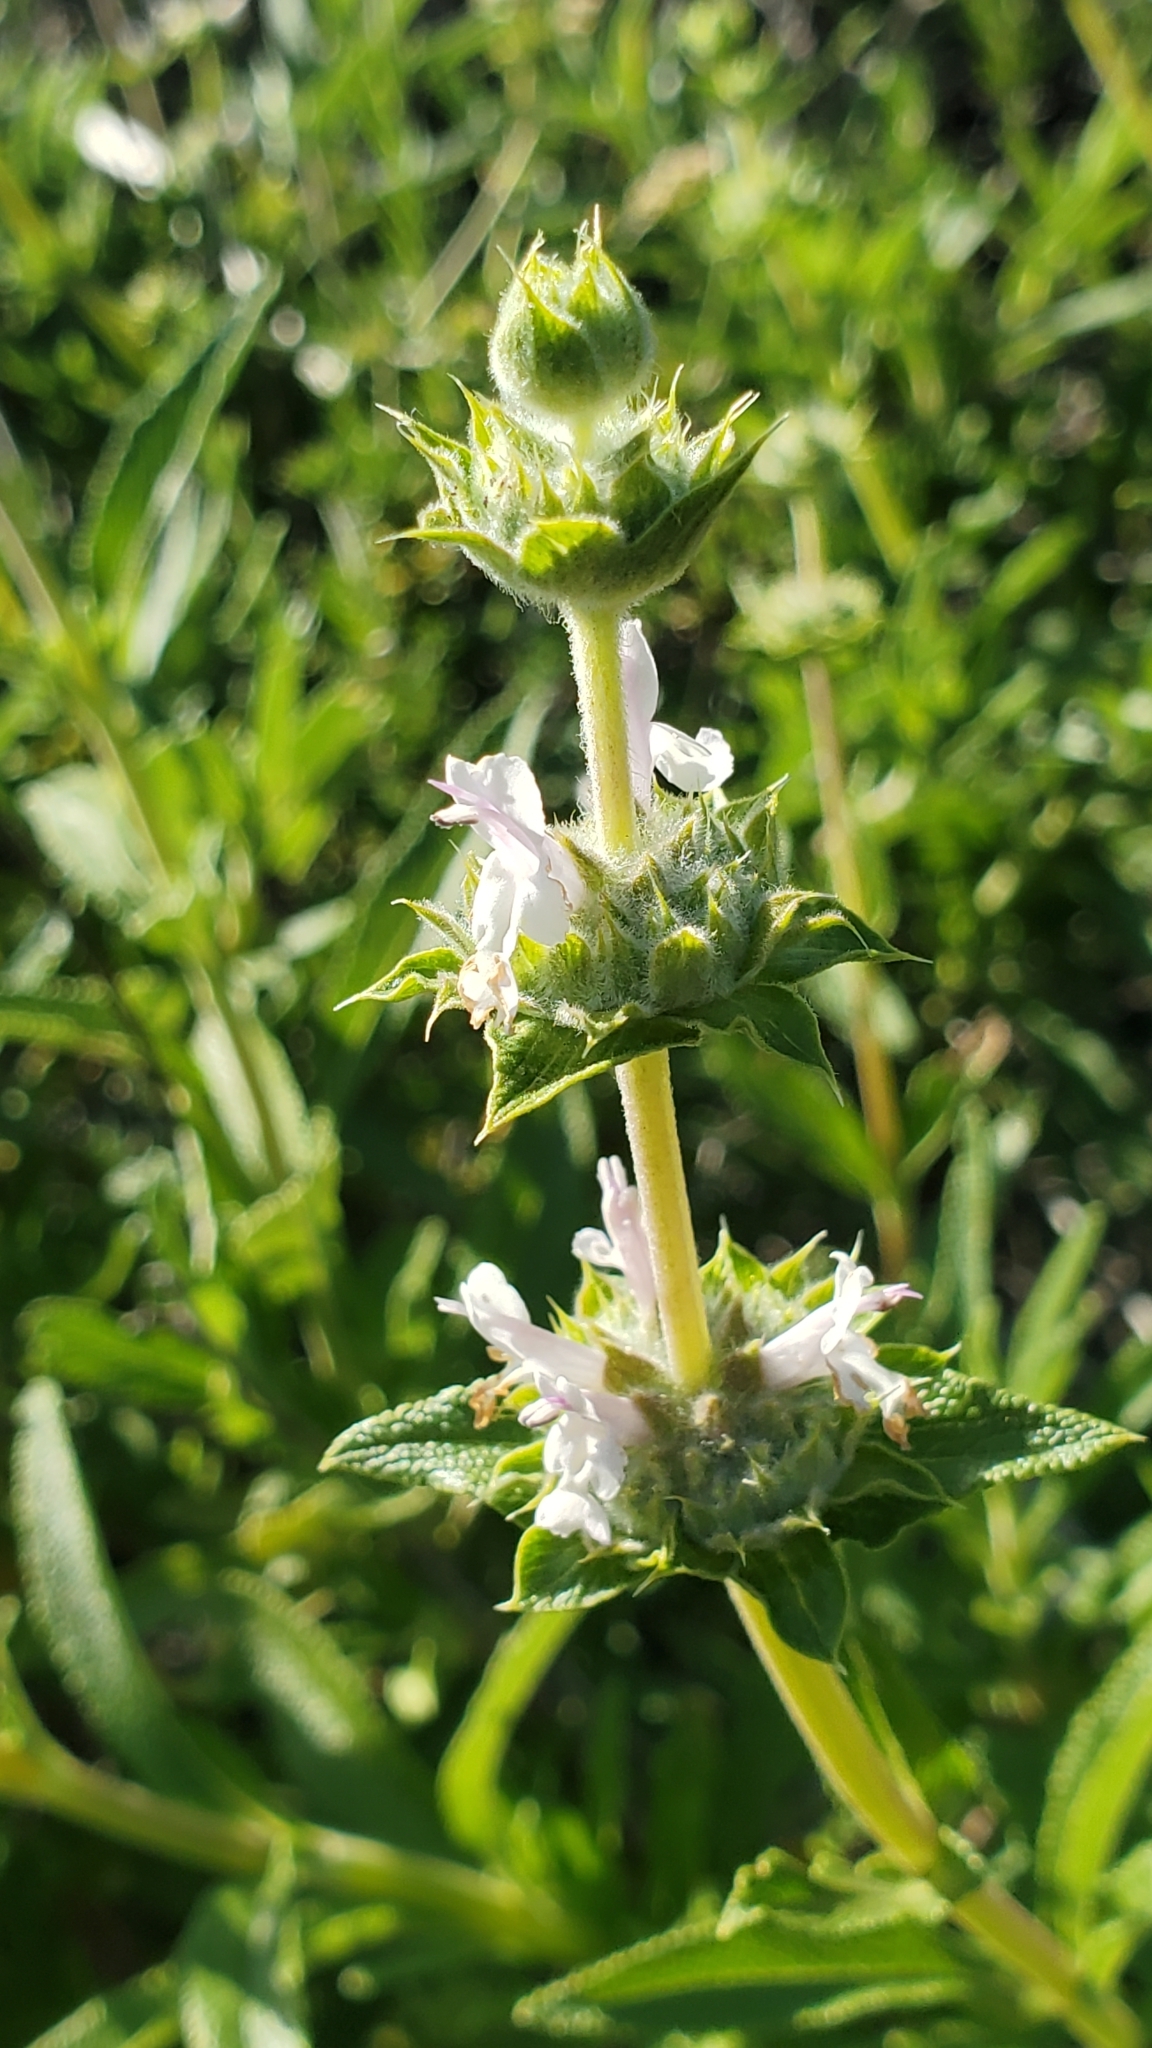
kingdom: Plantae
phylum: Tracheophyta
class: Magnoliopsida
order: Lamiales
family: Lamiaceae
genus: Salvia
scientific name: Salvia mellifera
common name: Black sage
